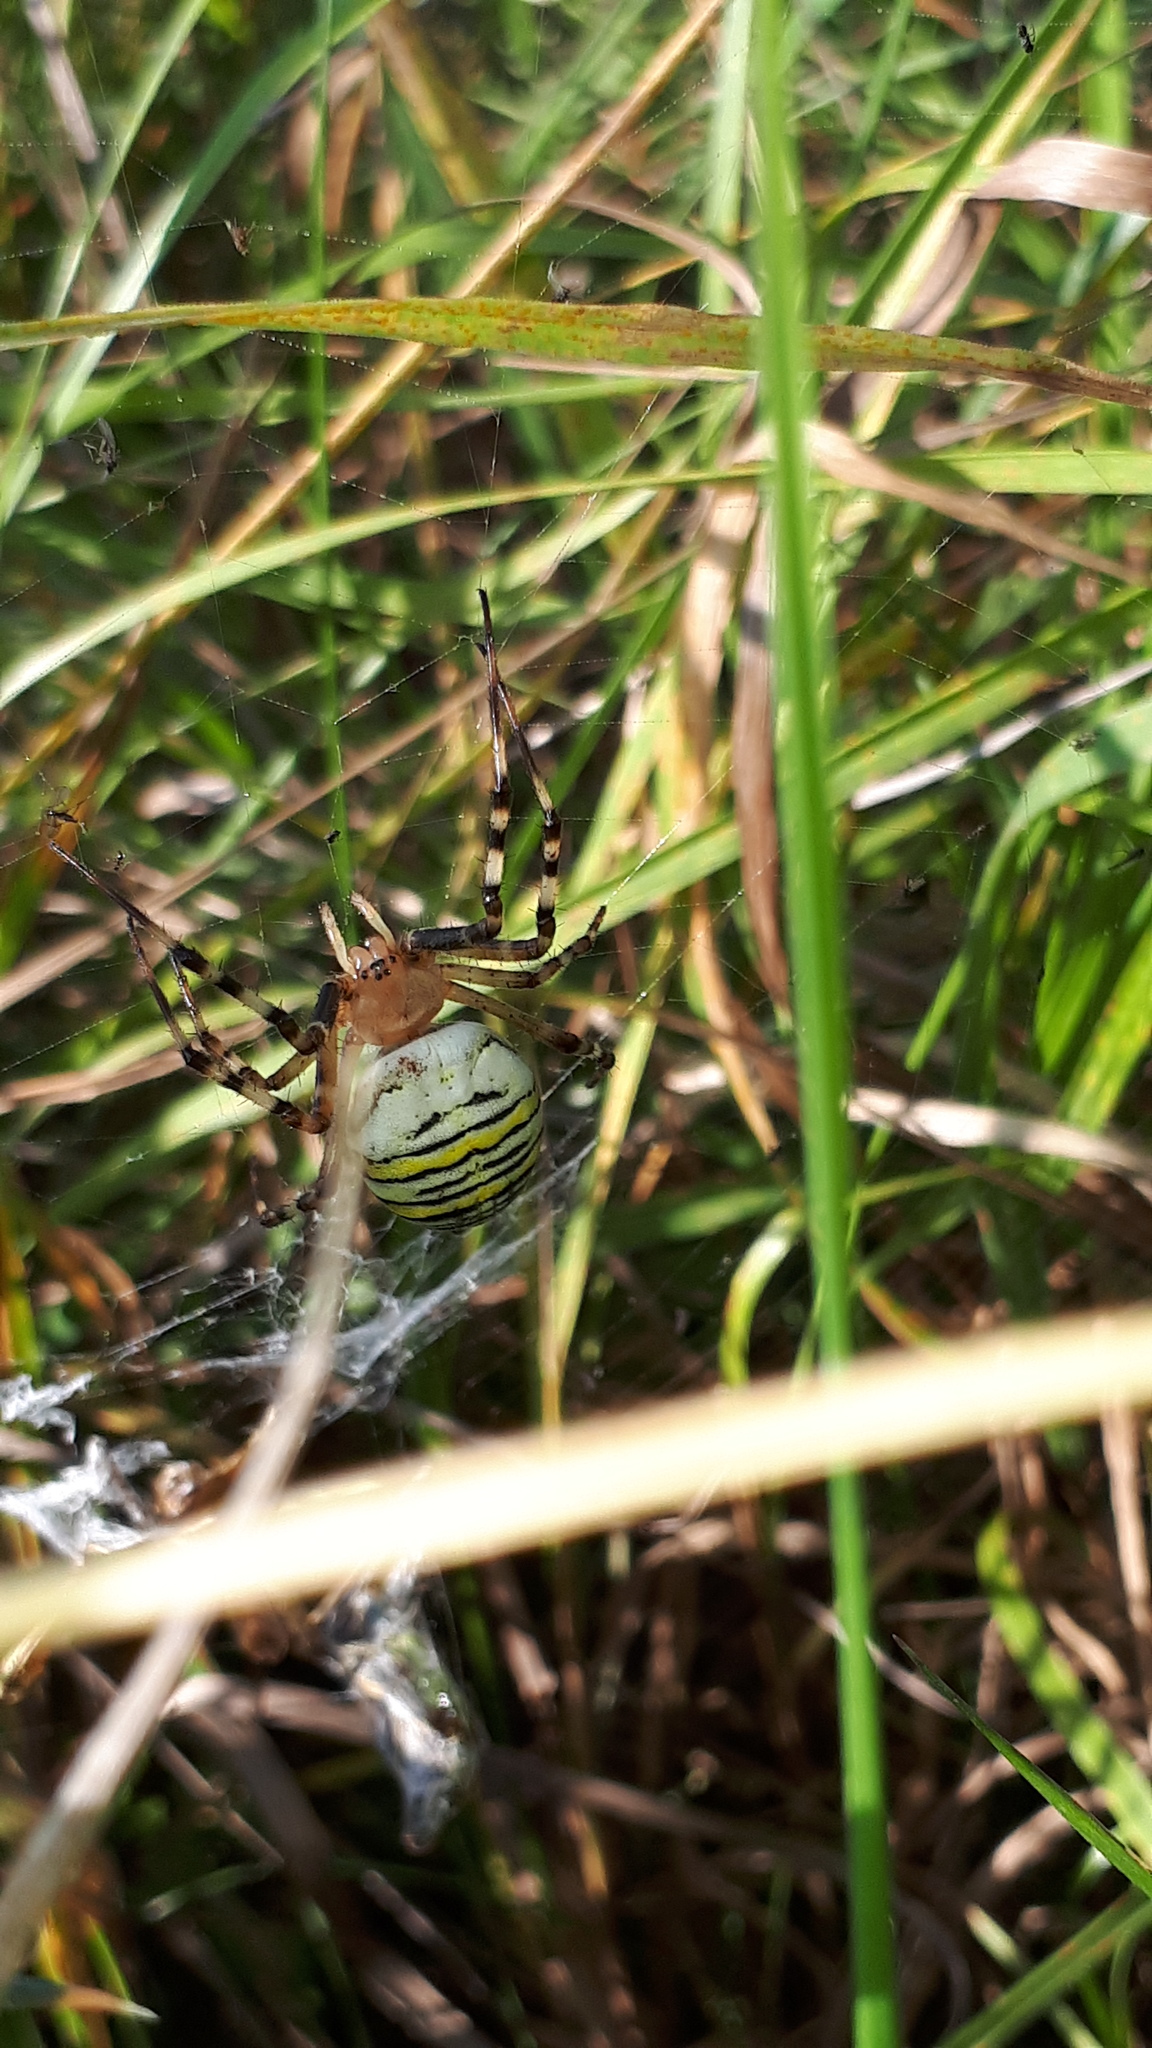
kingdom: Animalia
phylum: Arthropoda
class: Arachnida
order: Araneae
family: Araneidae
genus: Argiope
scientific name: Argiope bruennichi
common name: Wasp spider
